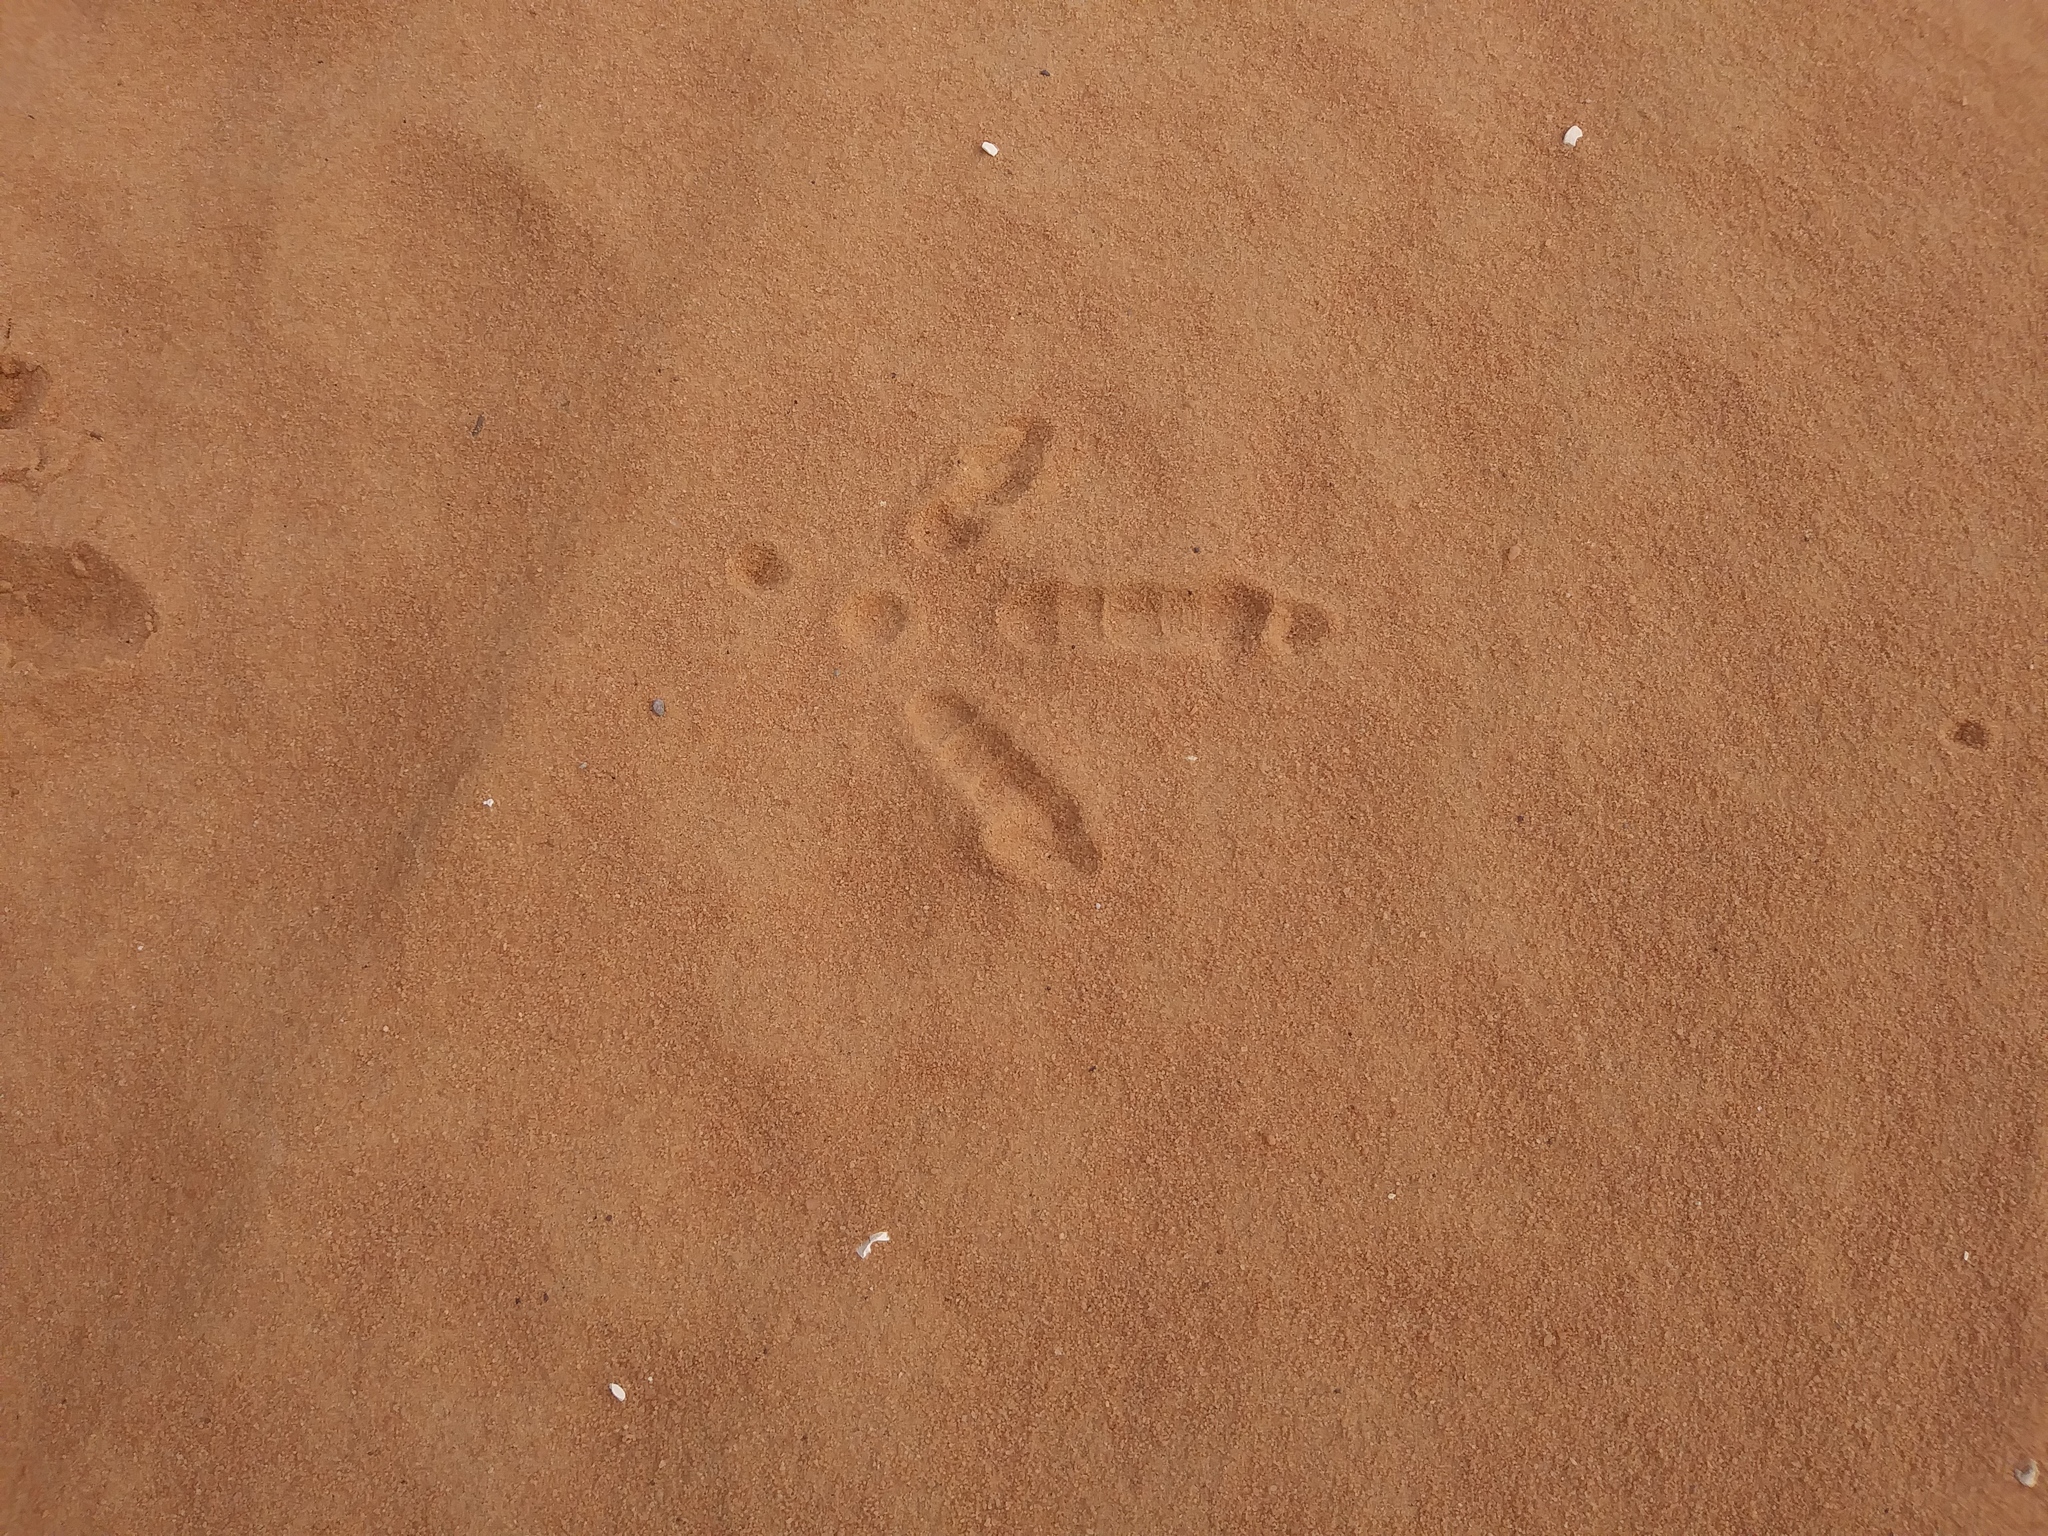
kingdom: Animalia
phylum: Chordata
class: Aves
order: Galliformes
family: Phasianidae
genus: Meleagris
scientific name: Meleagris gallopavo
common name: Wild turkey
